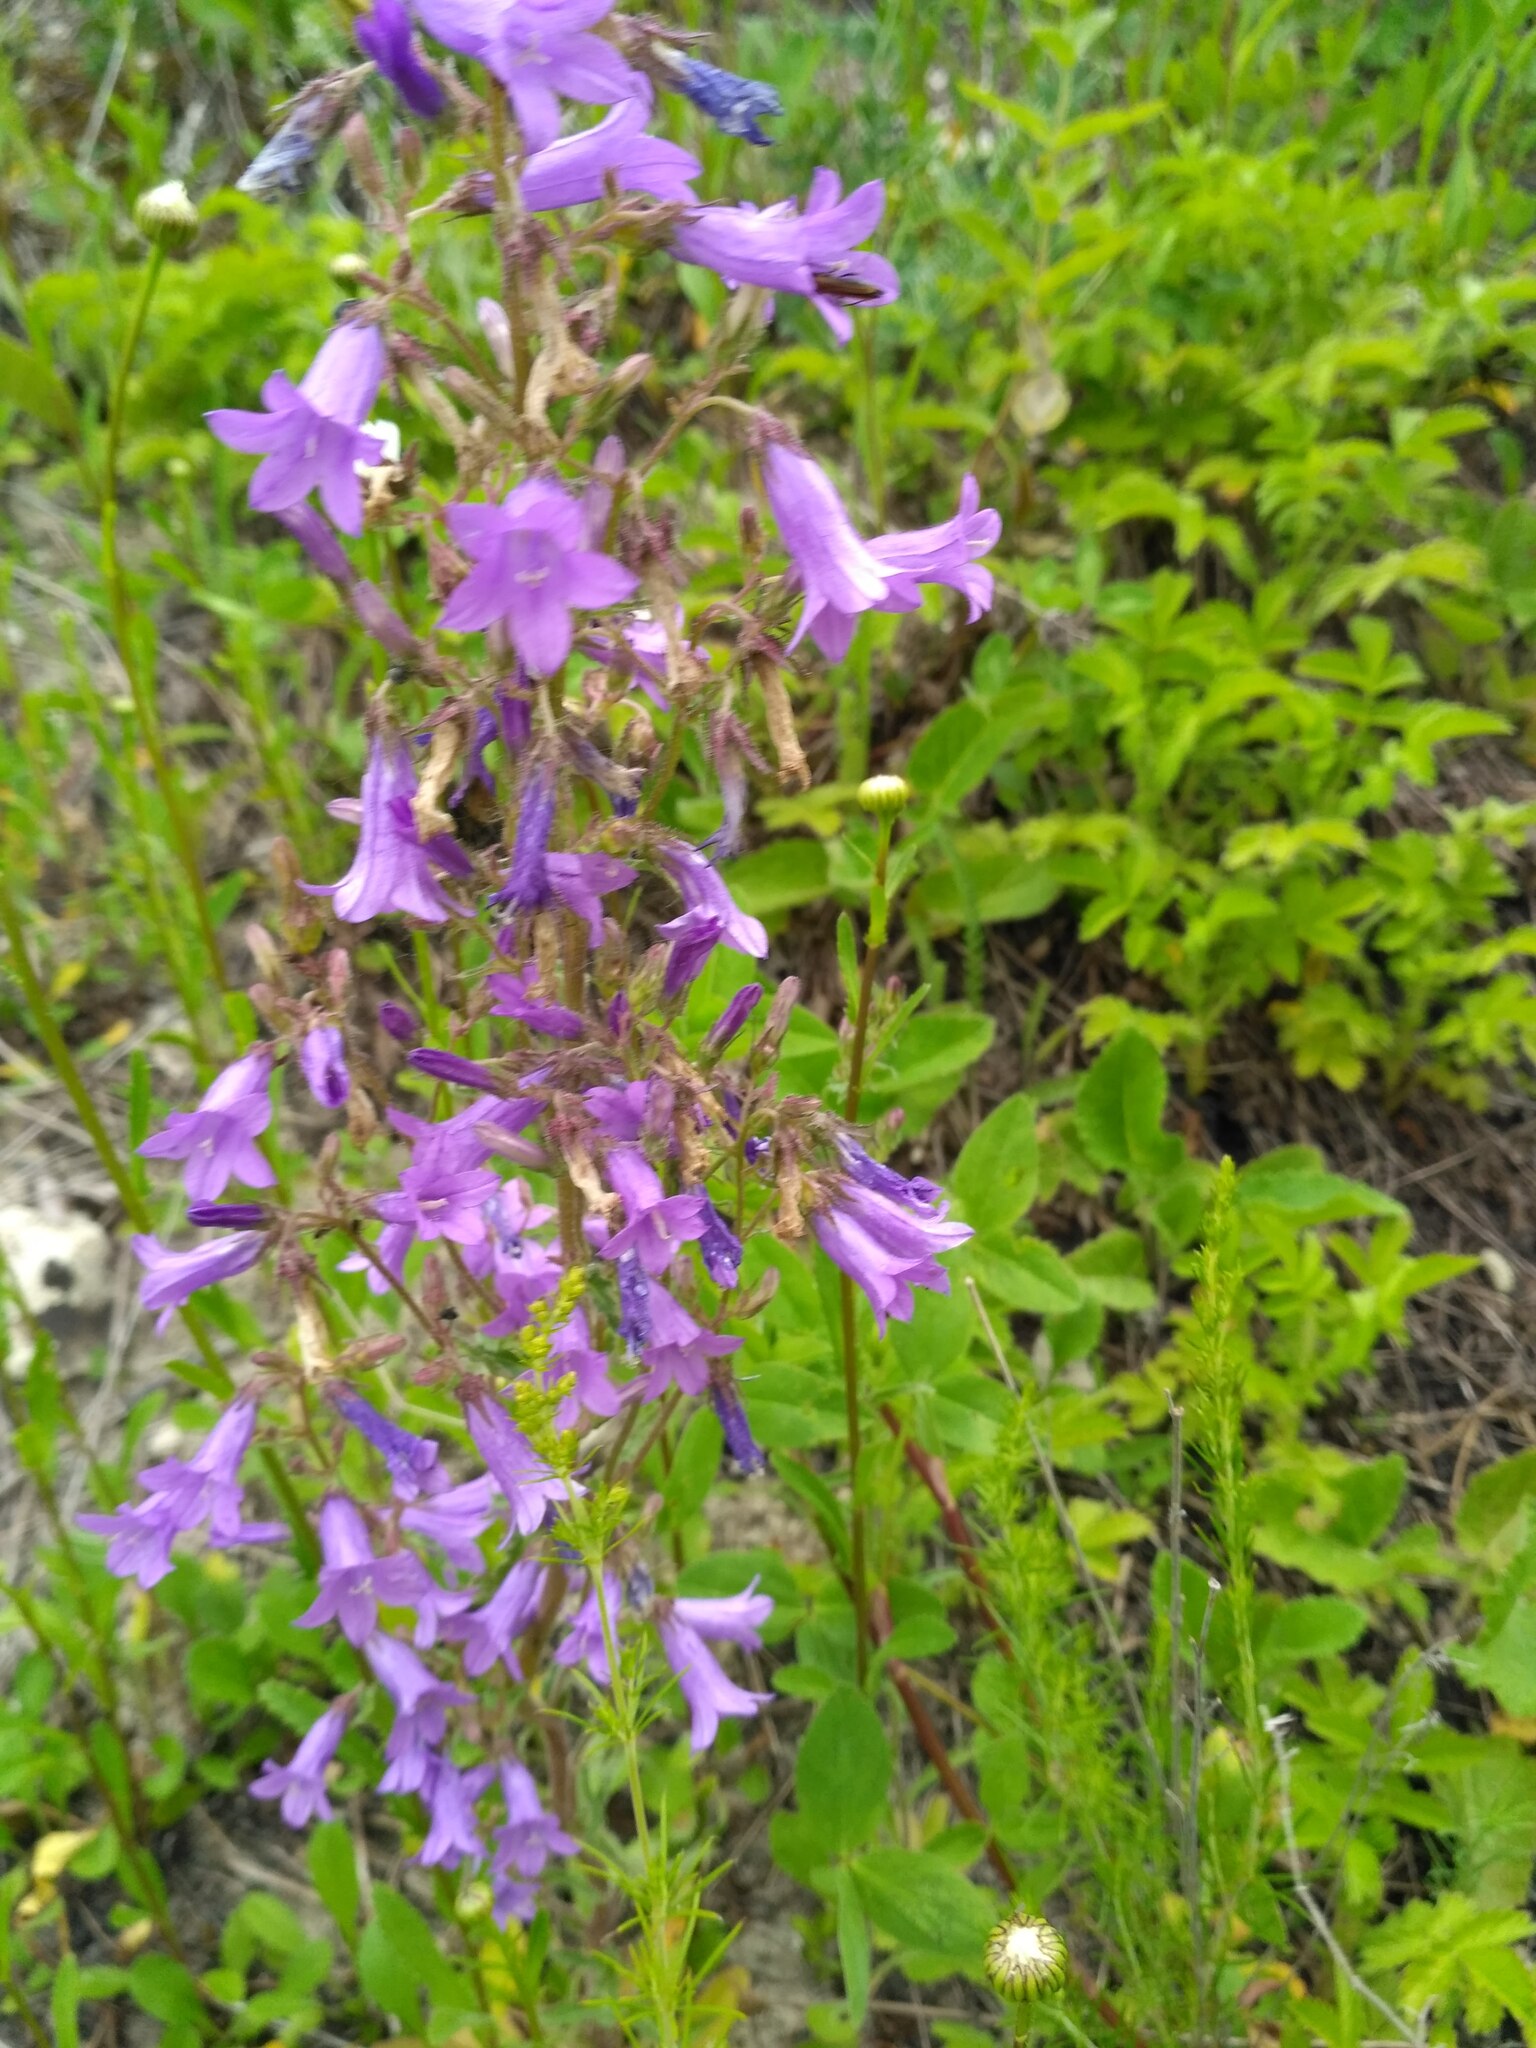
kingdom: Plantae
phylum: Tracheophyta
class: Magnoliopsida
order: Asterales
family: Campanulaceae
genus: Campanula
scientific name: Campanula sibirica
